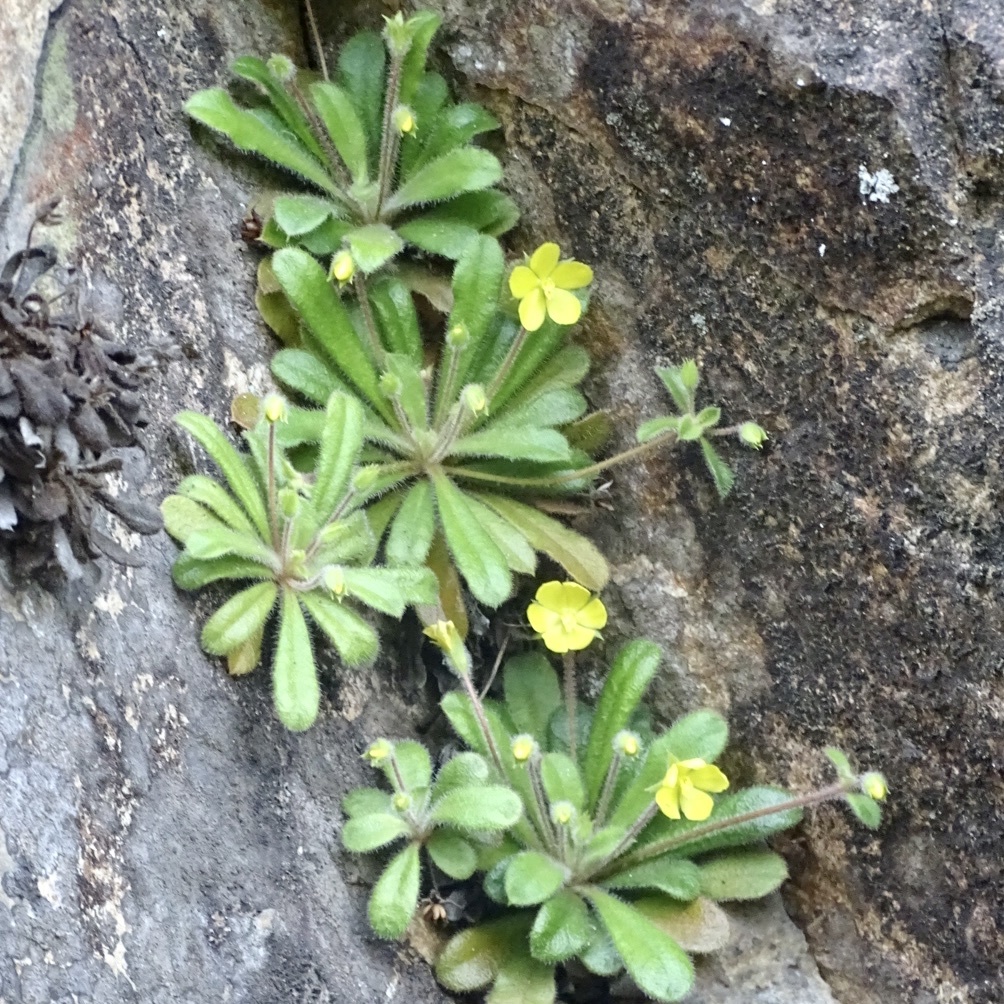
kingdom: Plantae
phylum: Tracheophyta
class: Magnoliopsida
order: Ericales
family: Primulaceae
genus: Lysimachia
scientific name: Lysimachia alpestris
